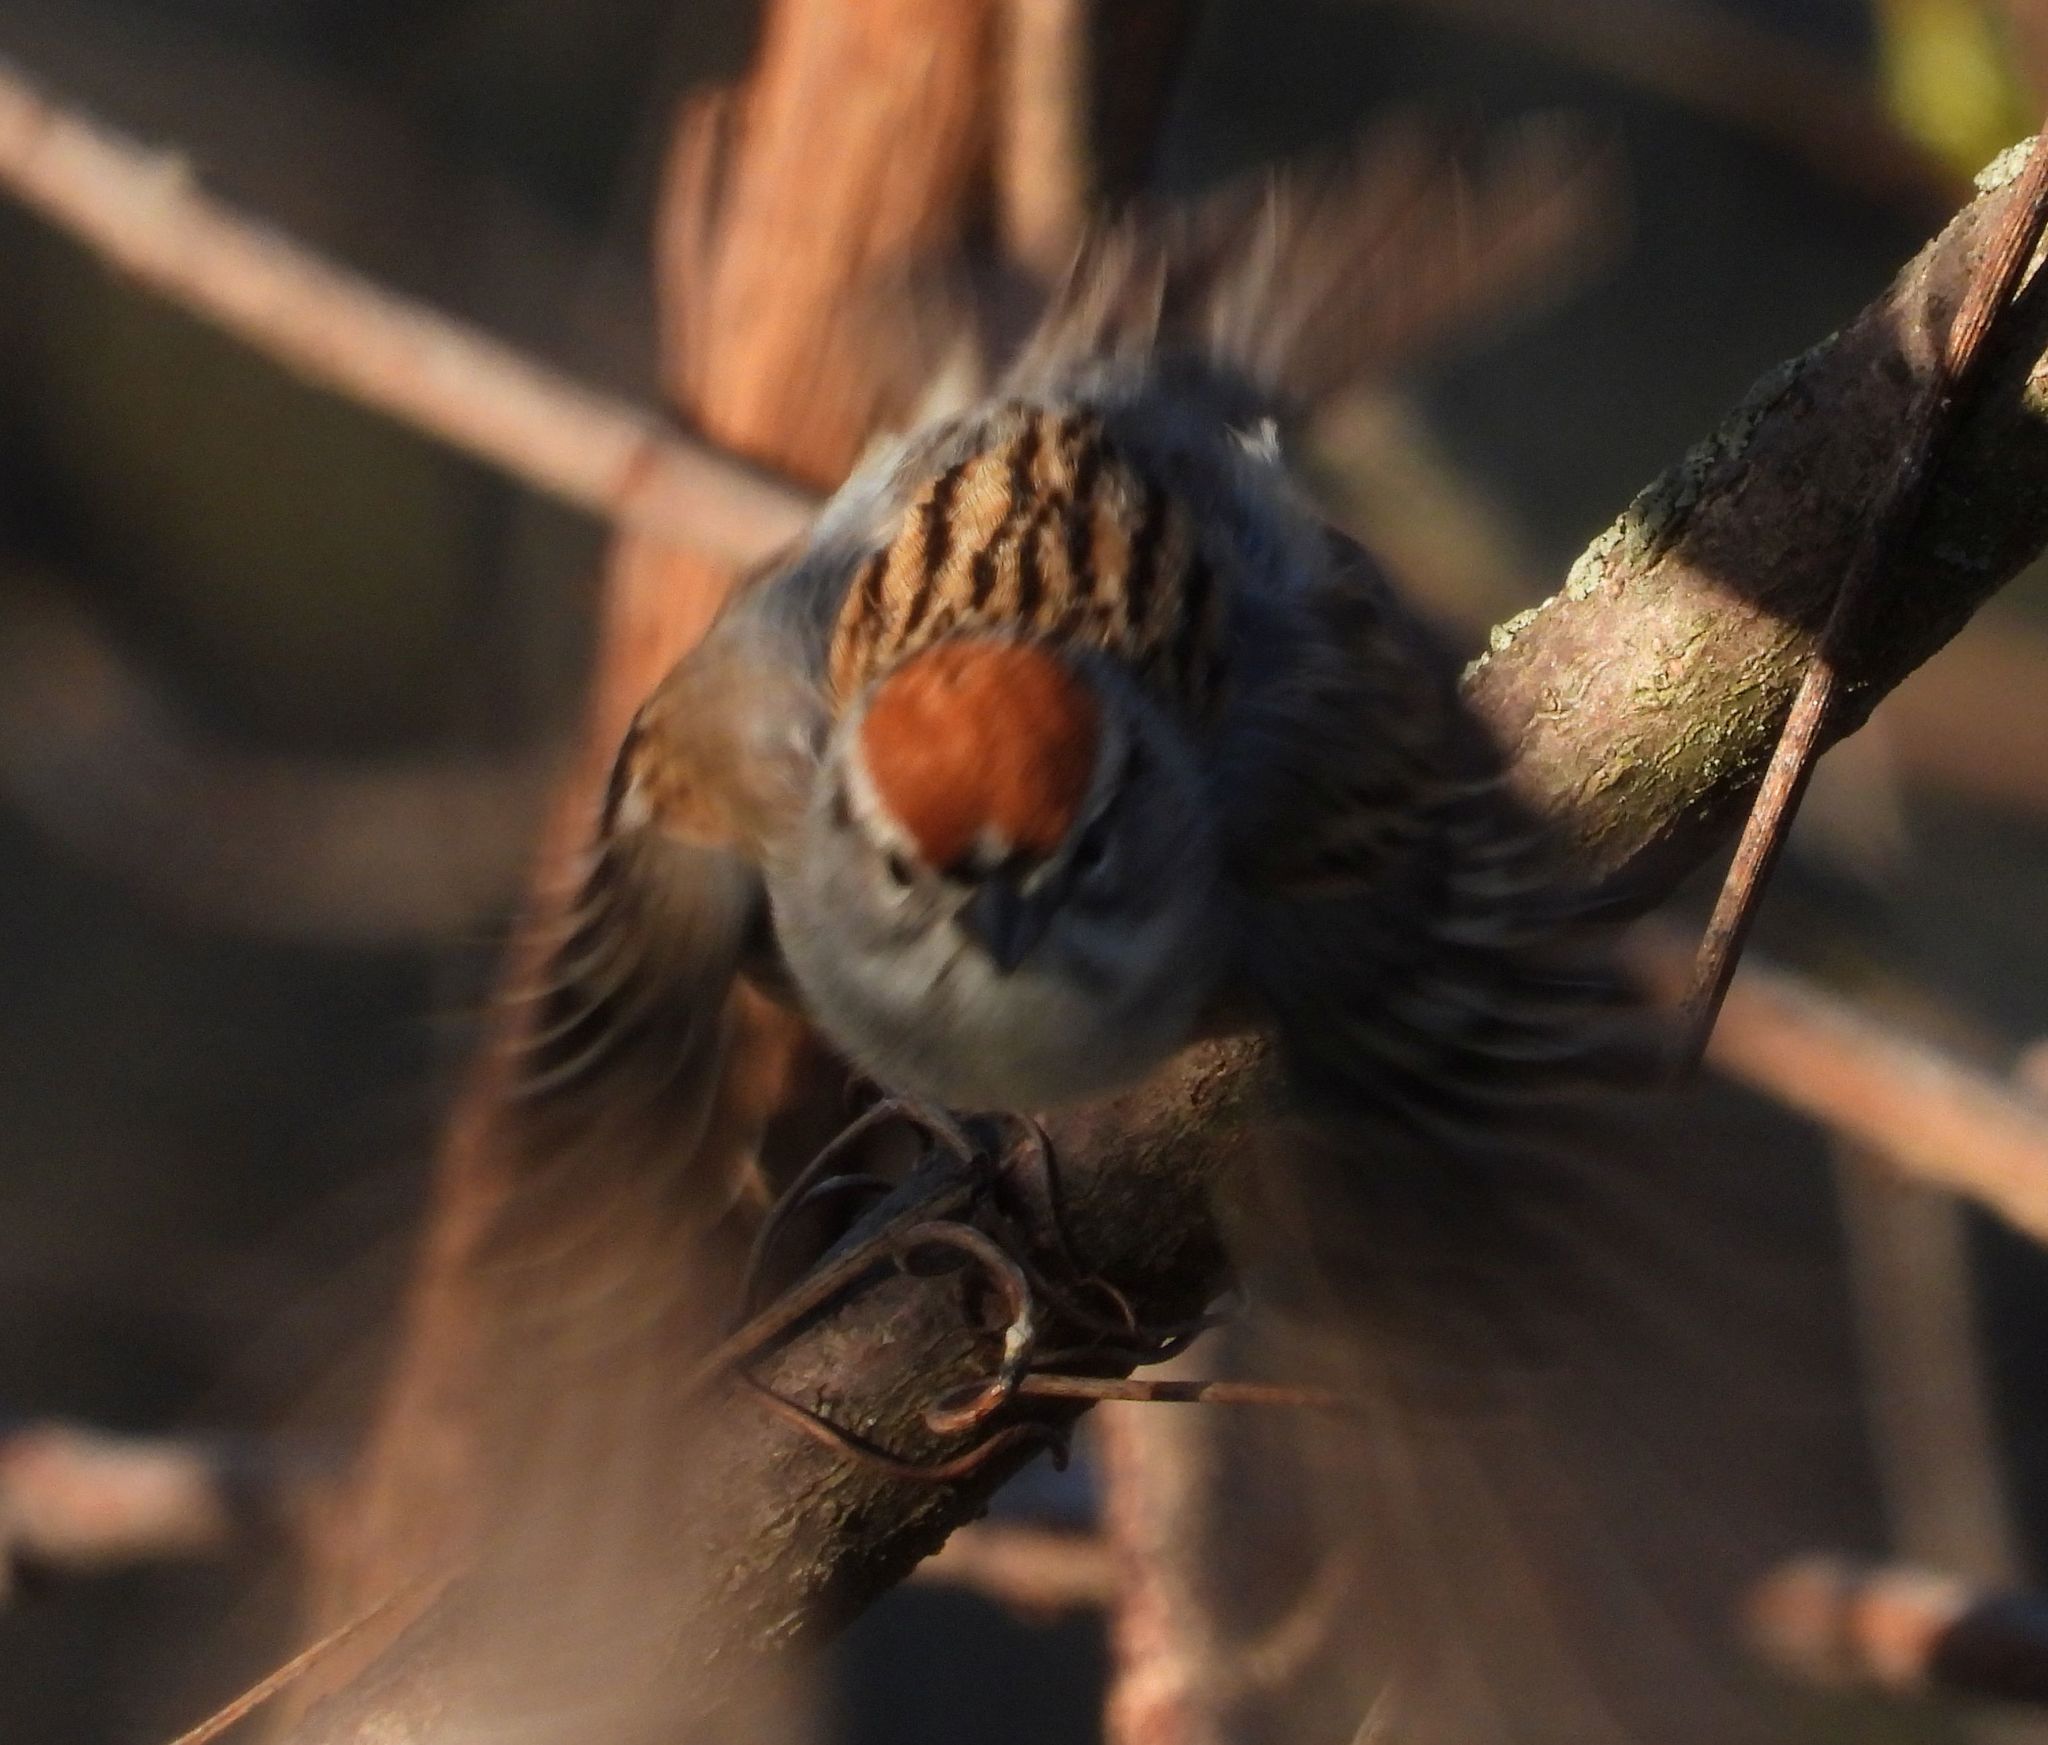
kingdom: Animalia
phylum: Chordata
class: Aves
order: Passeriformes
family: Passerellidae
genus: Spizella
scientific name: Spizella passerina
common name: Chipping sparrow
